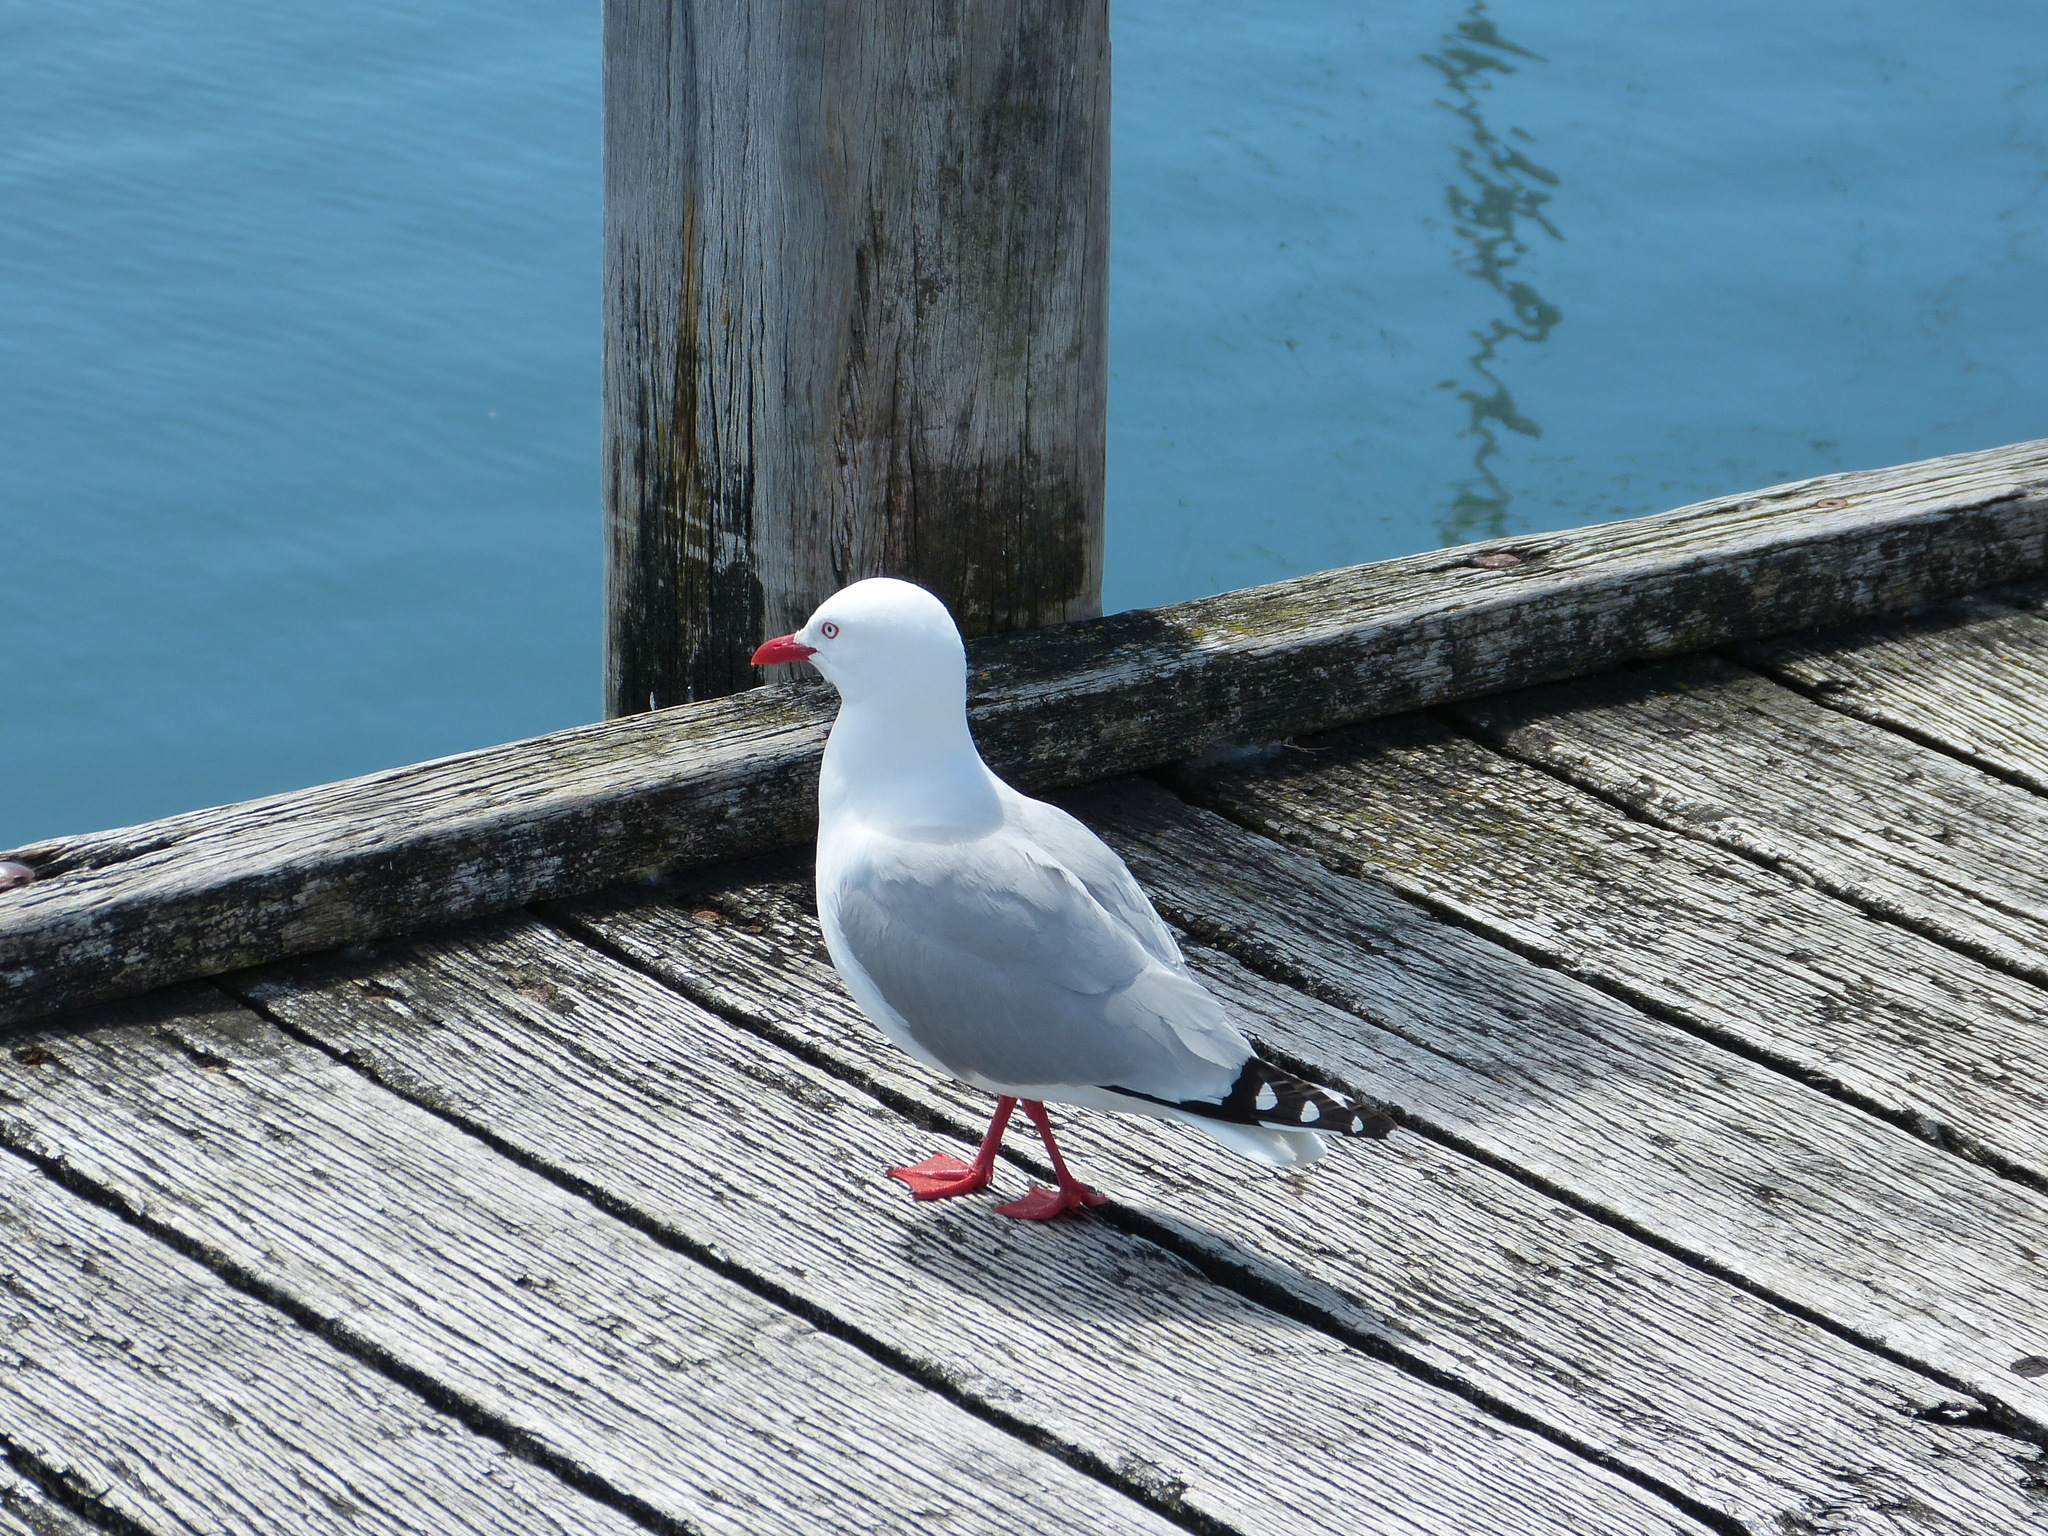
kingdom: Animalia
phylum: Chordata
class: Aves
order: Charadriiformes
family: Laridae
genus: Chroicocephalus
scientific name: Chroicocephalus novaehollandiae
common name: Silver gull
